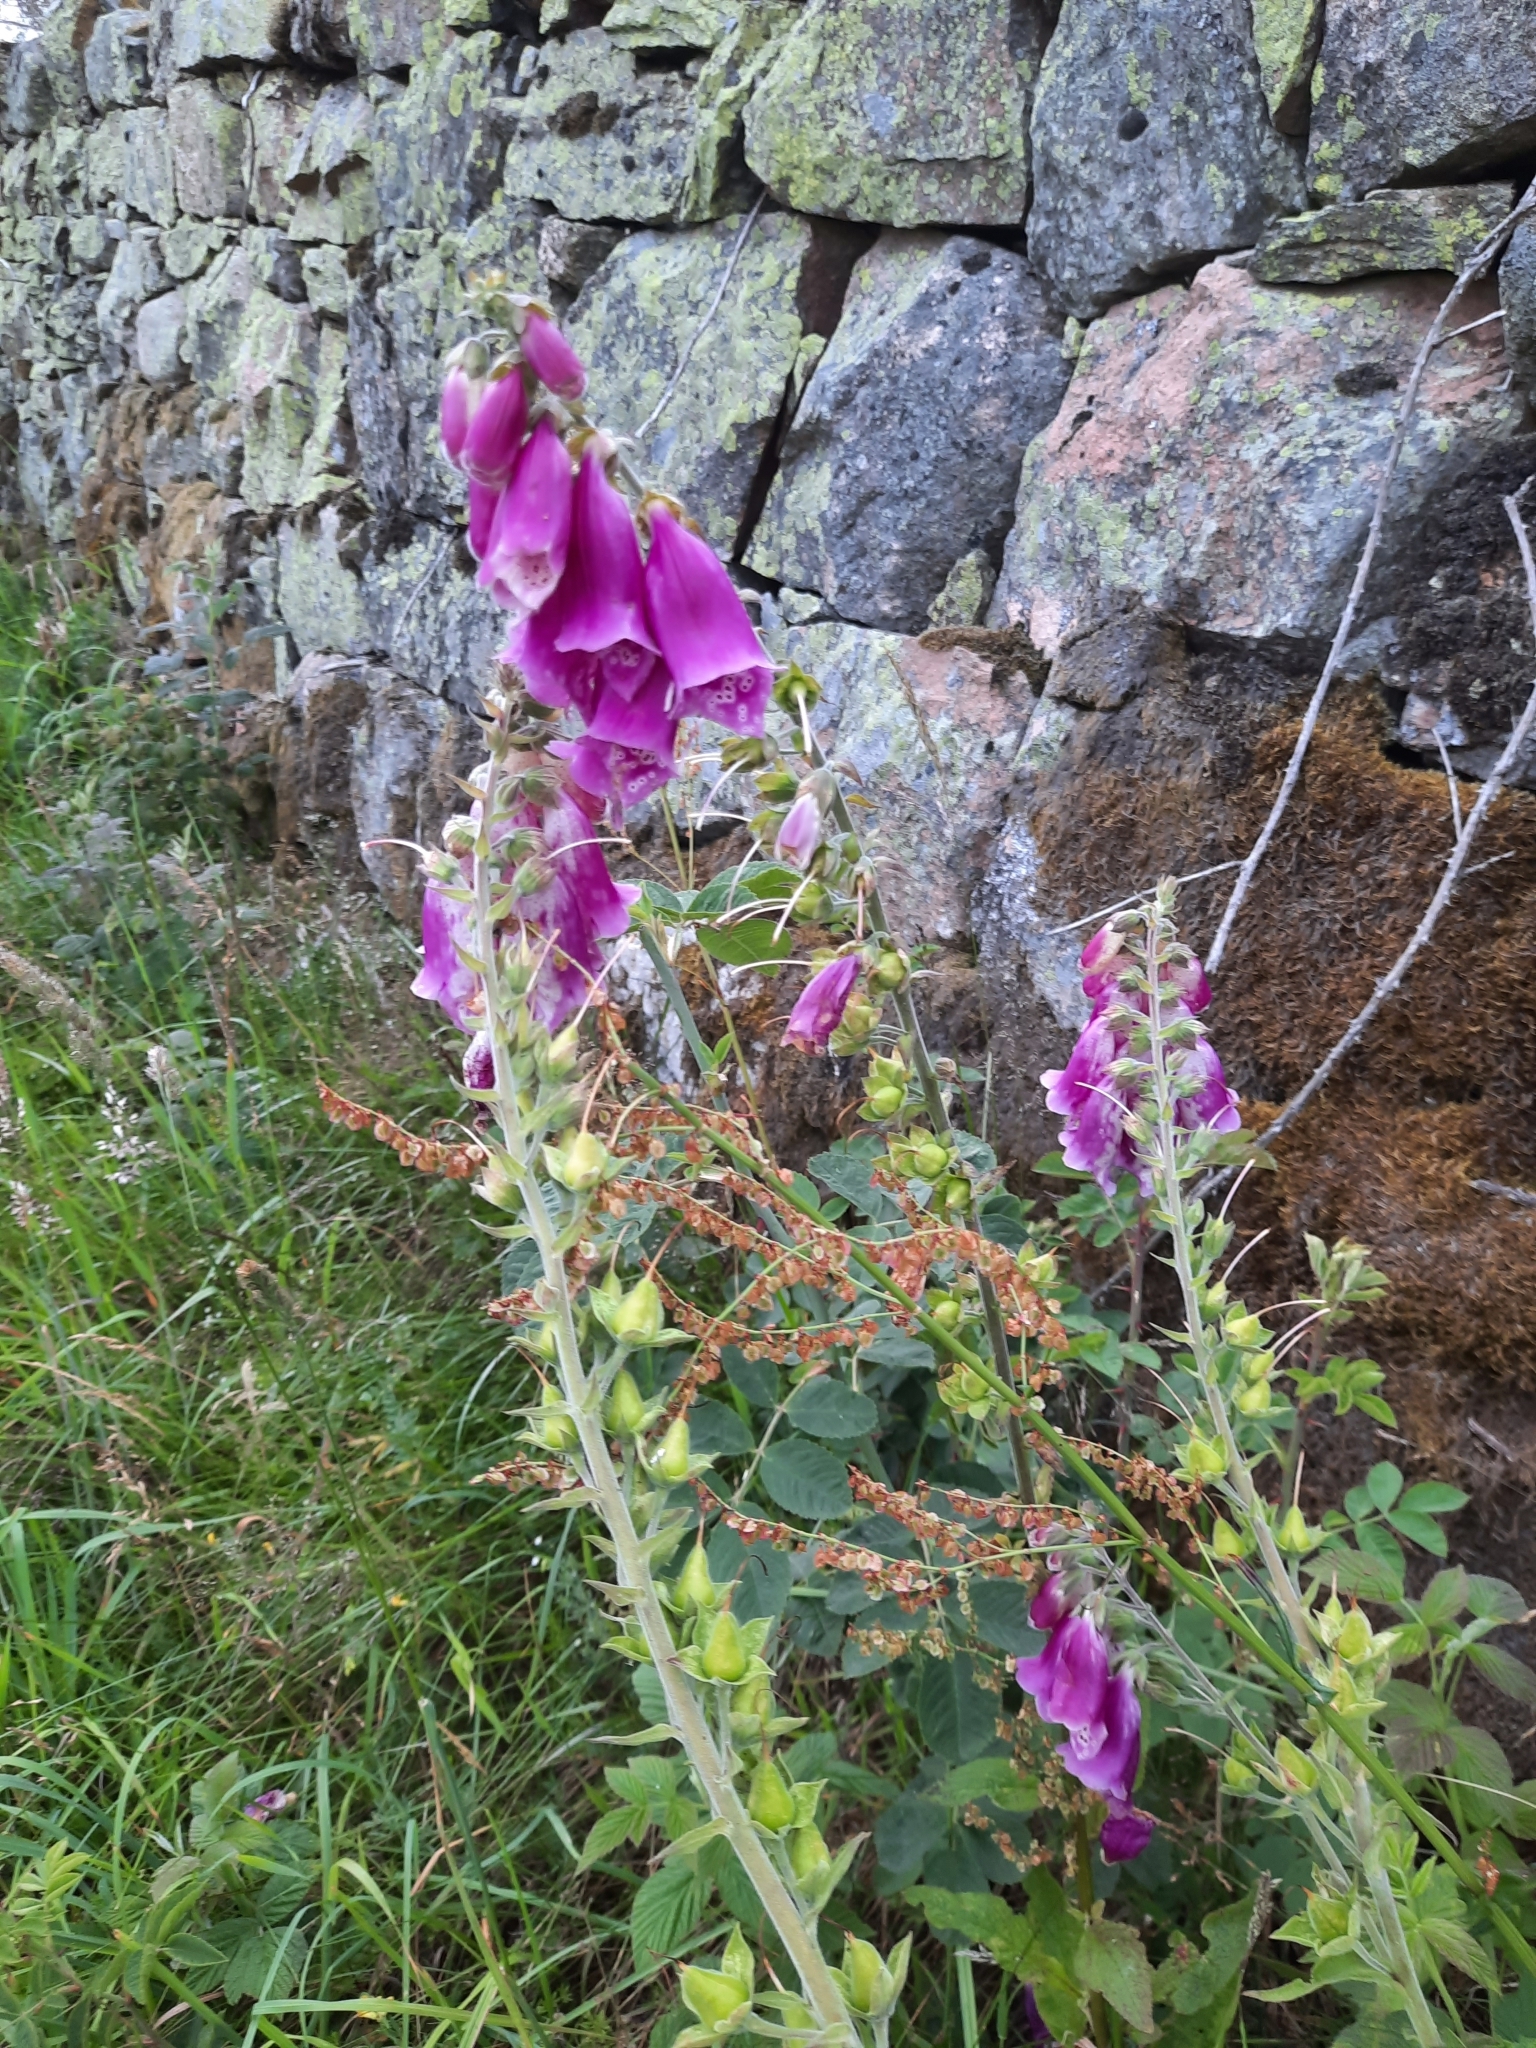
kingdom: Plantae
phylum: Tracheophyta
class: Magnoliopsida
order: Lamiales
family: Plantaginaceae
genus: Digitalis
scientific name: Digitalis purpurea
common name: Foxglove
